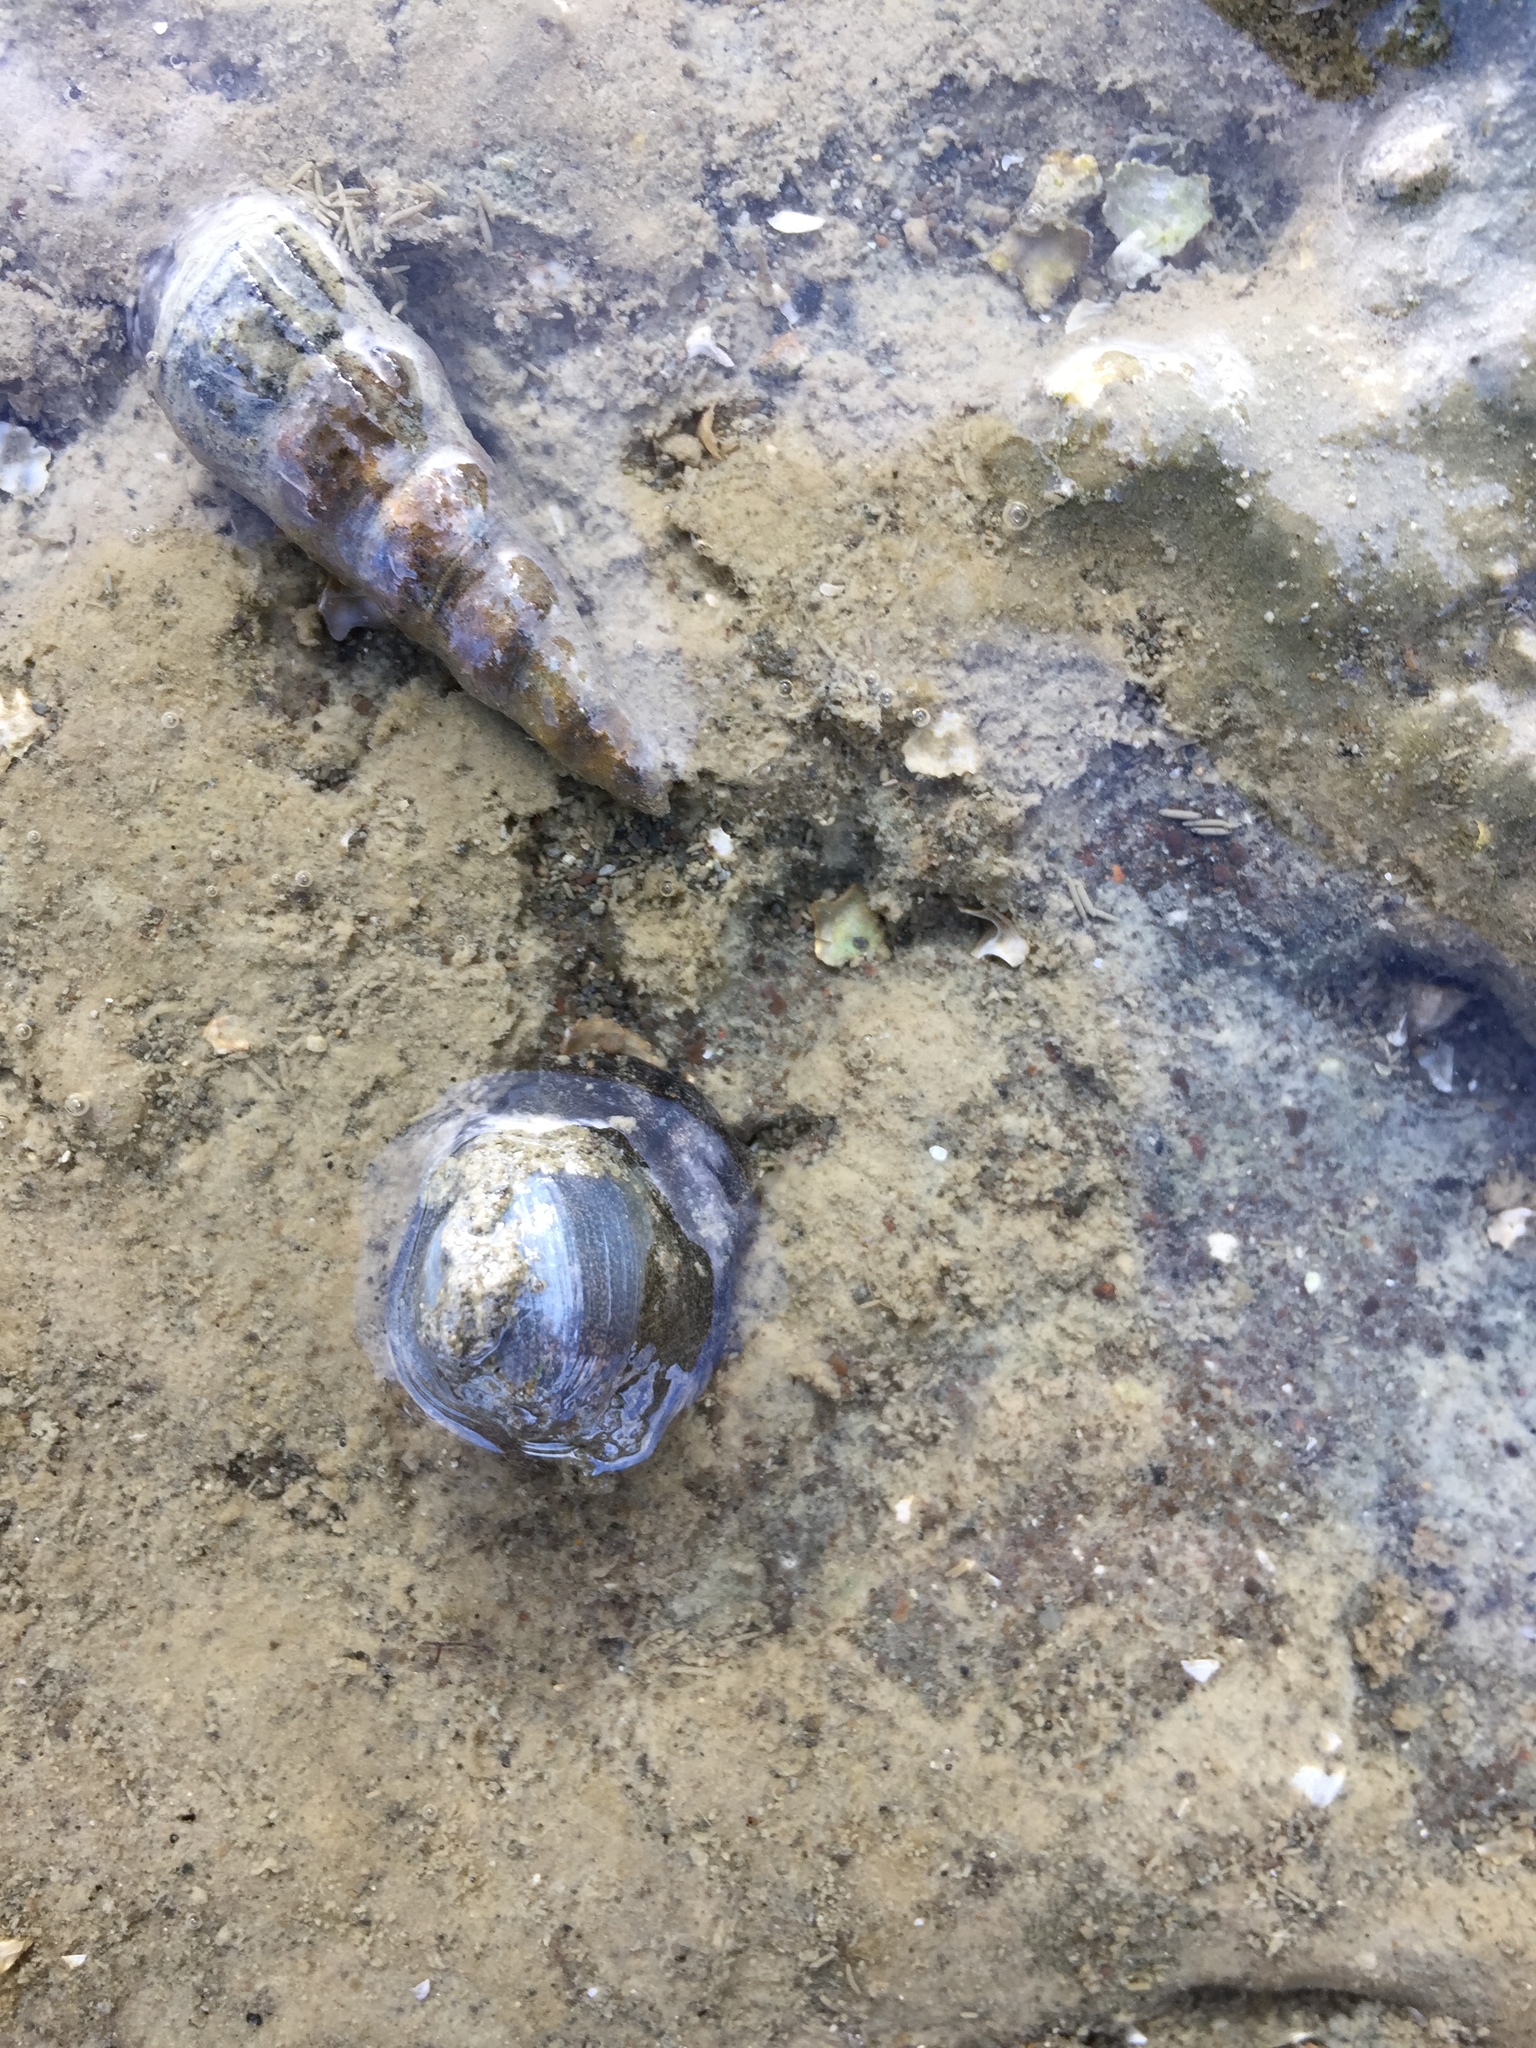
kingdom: Animalia
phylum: Mollusca
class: Gastropoda
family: Batillariidae
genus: Zeacumantus
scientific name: Zeacumantus lutulentus
